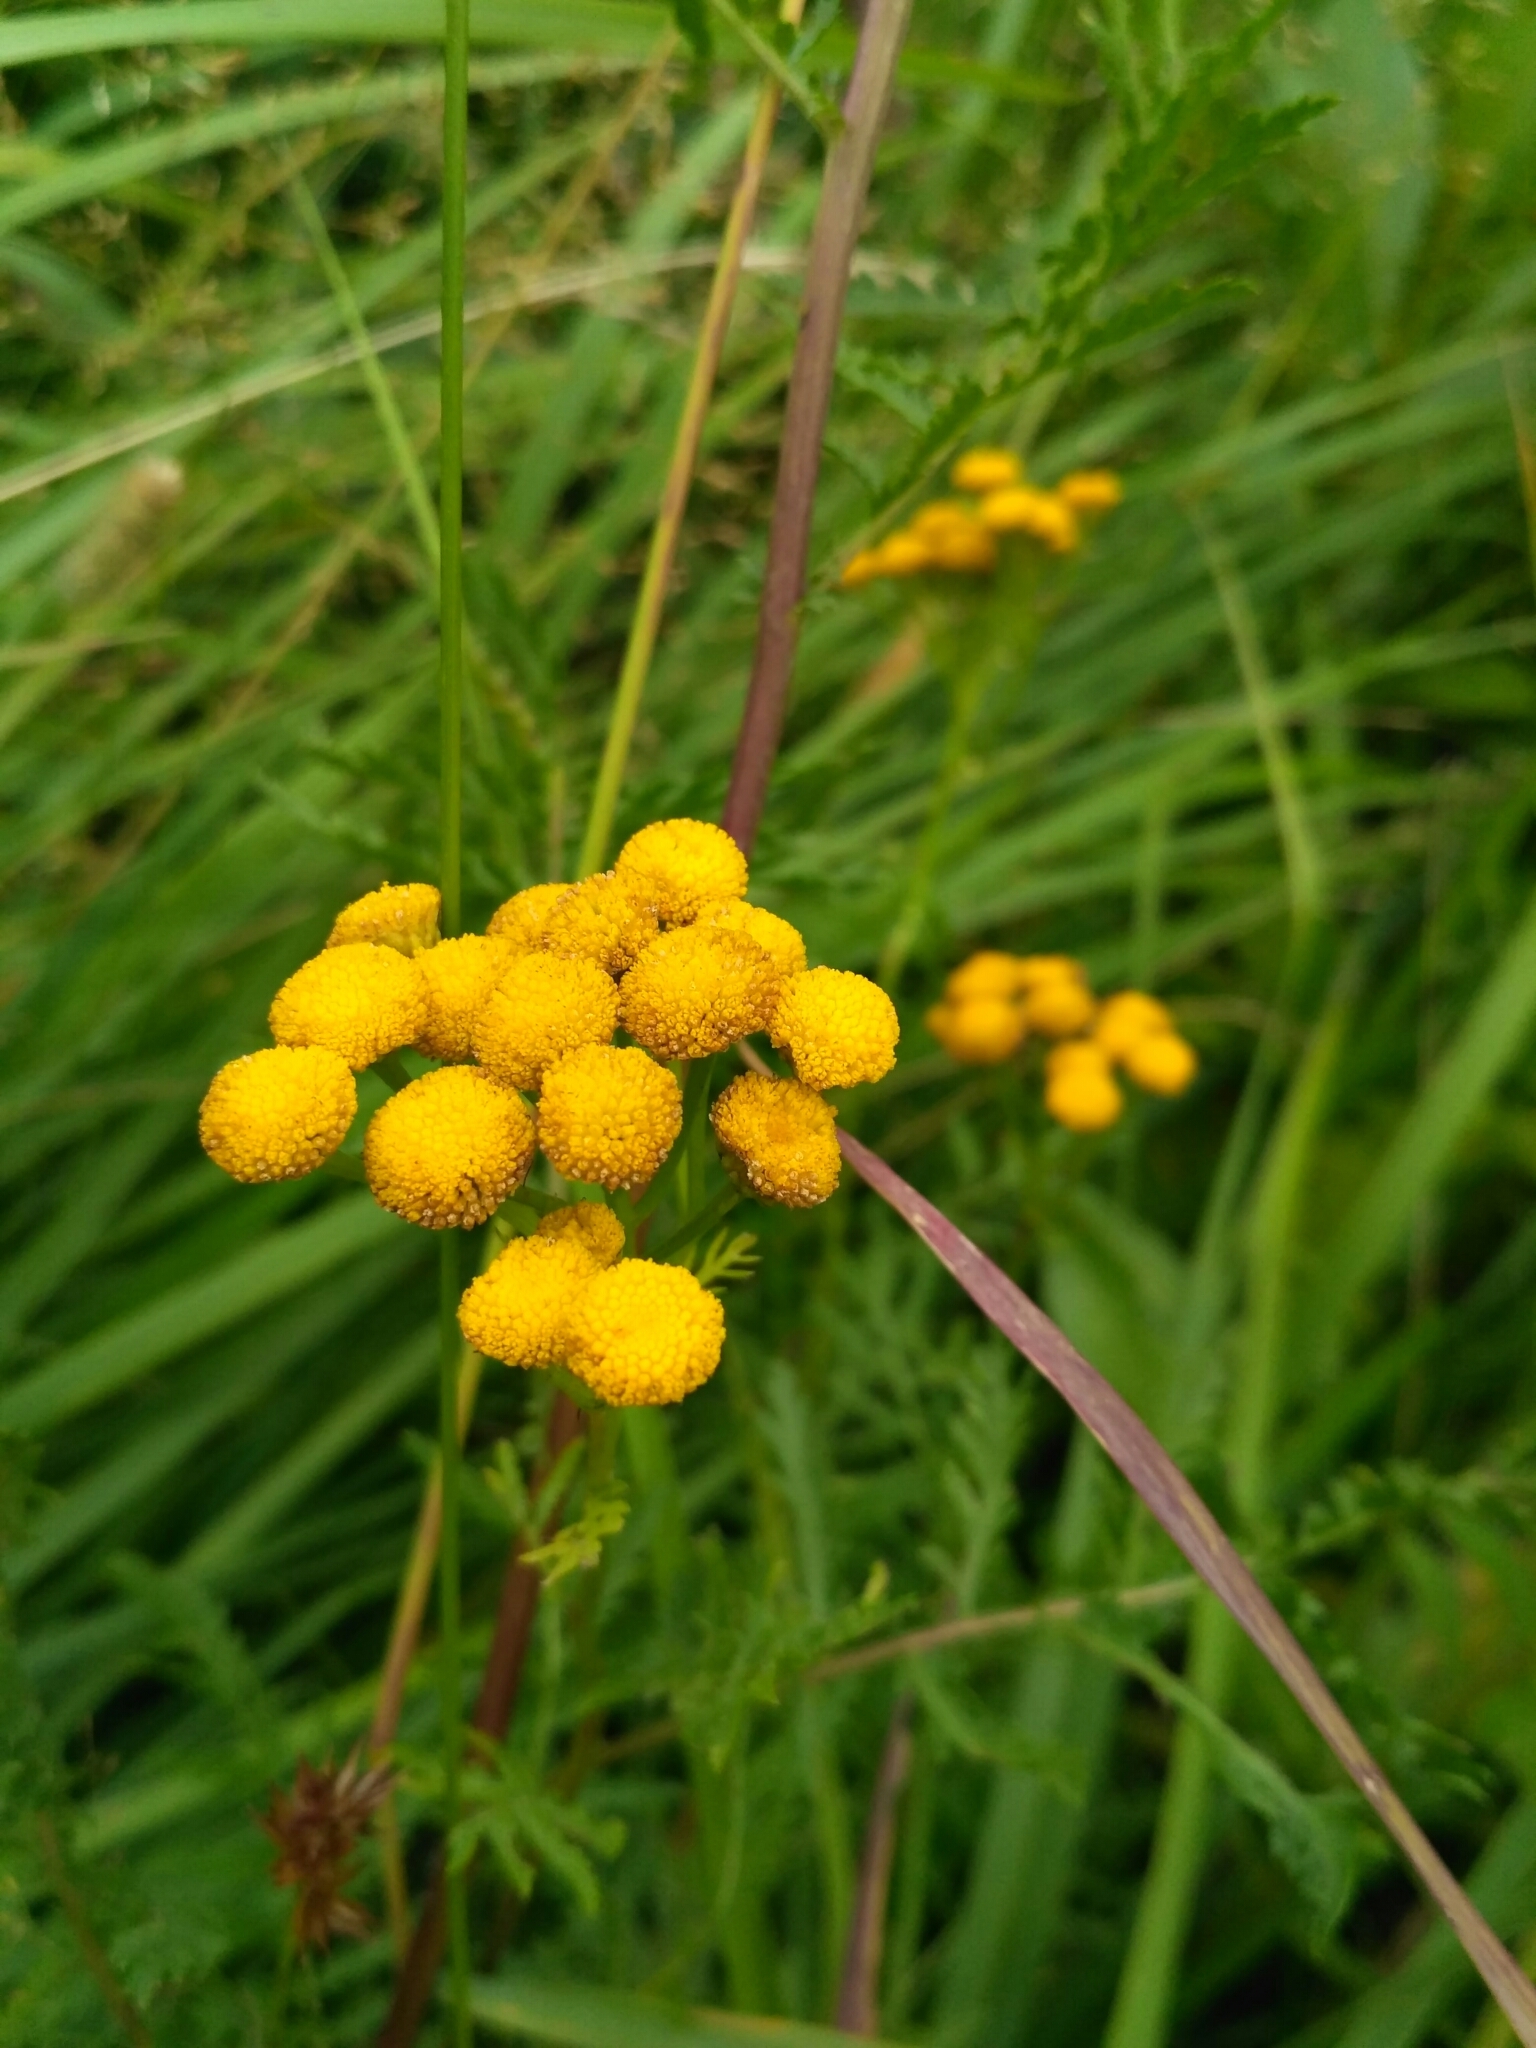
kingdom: Plantae
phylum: Tracheophyta
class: Magnoliopsida
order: Asterales
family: Asteraceae
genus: Tanacetum
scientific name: Tanacetum vulgare
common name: Common tansy
